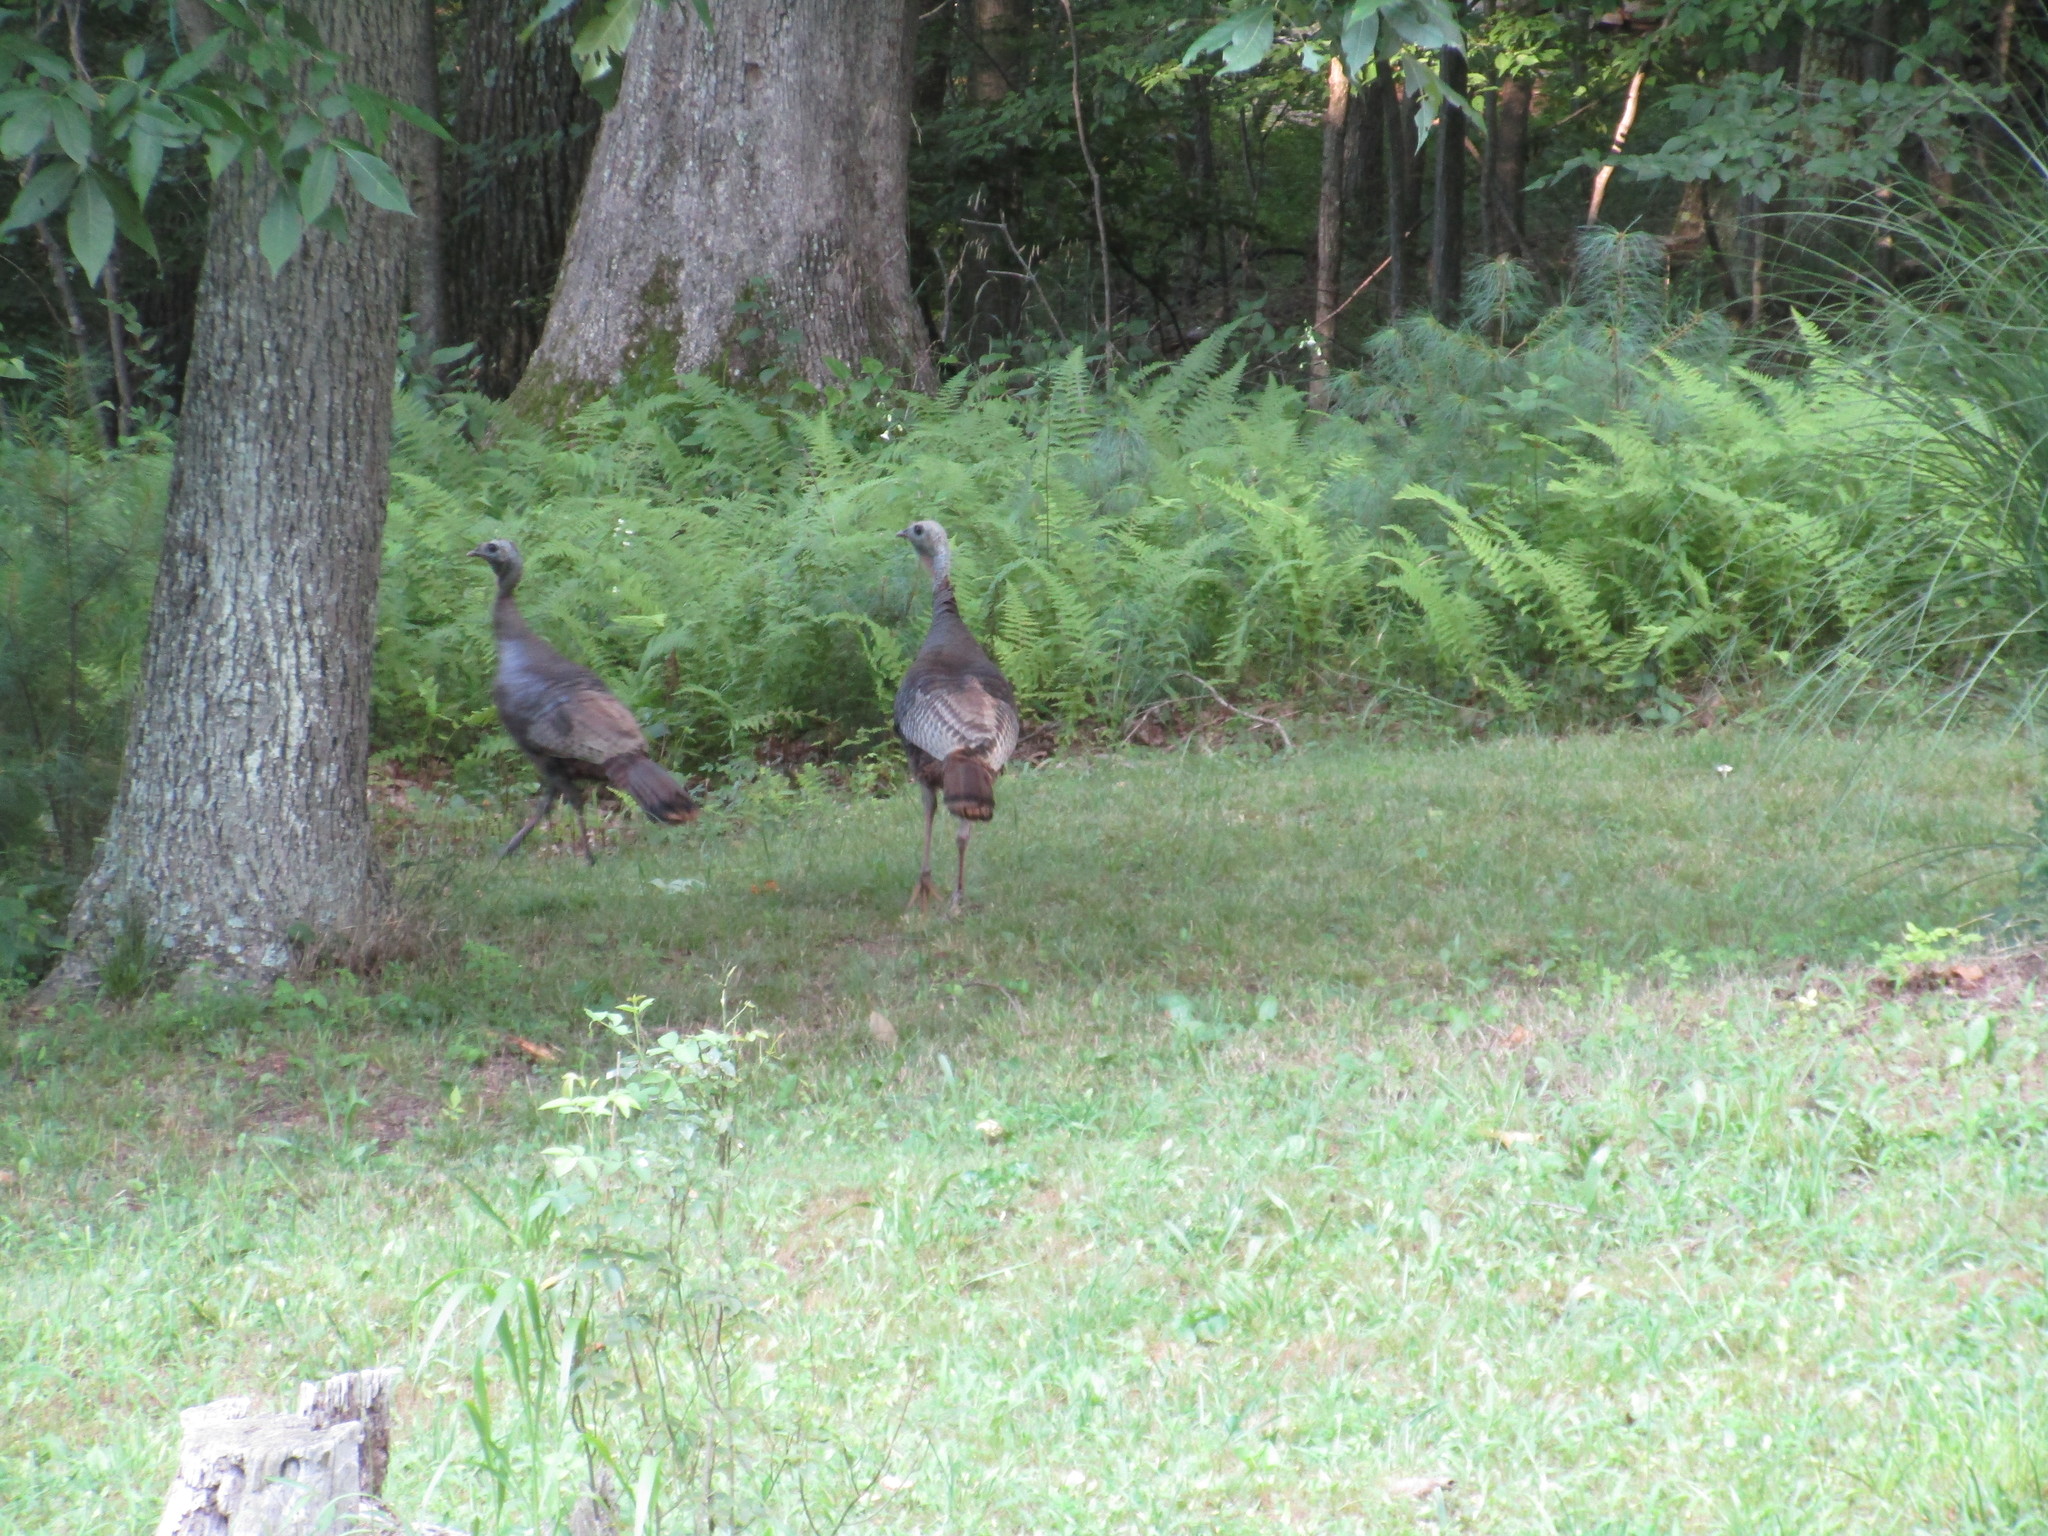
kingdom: Animalia
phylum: Chordata
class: Aves
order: Galliformes
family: Phasianidae
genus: Meleagris
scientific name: Meleagris gallopavo
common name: Wild turkey
